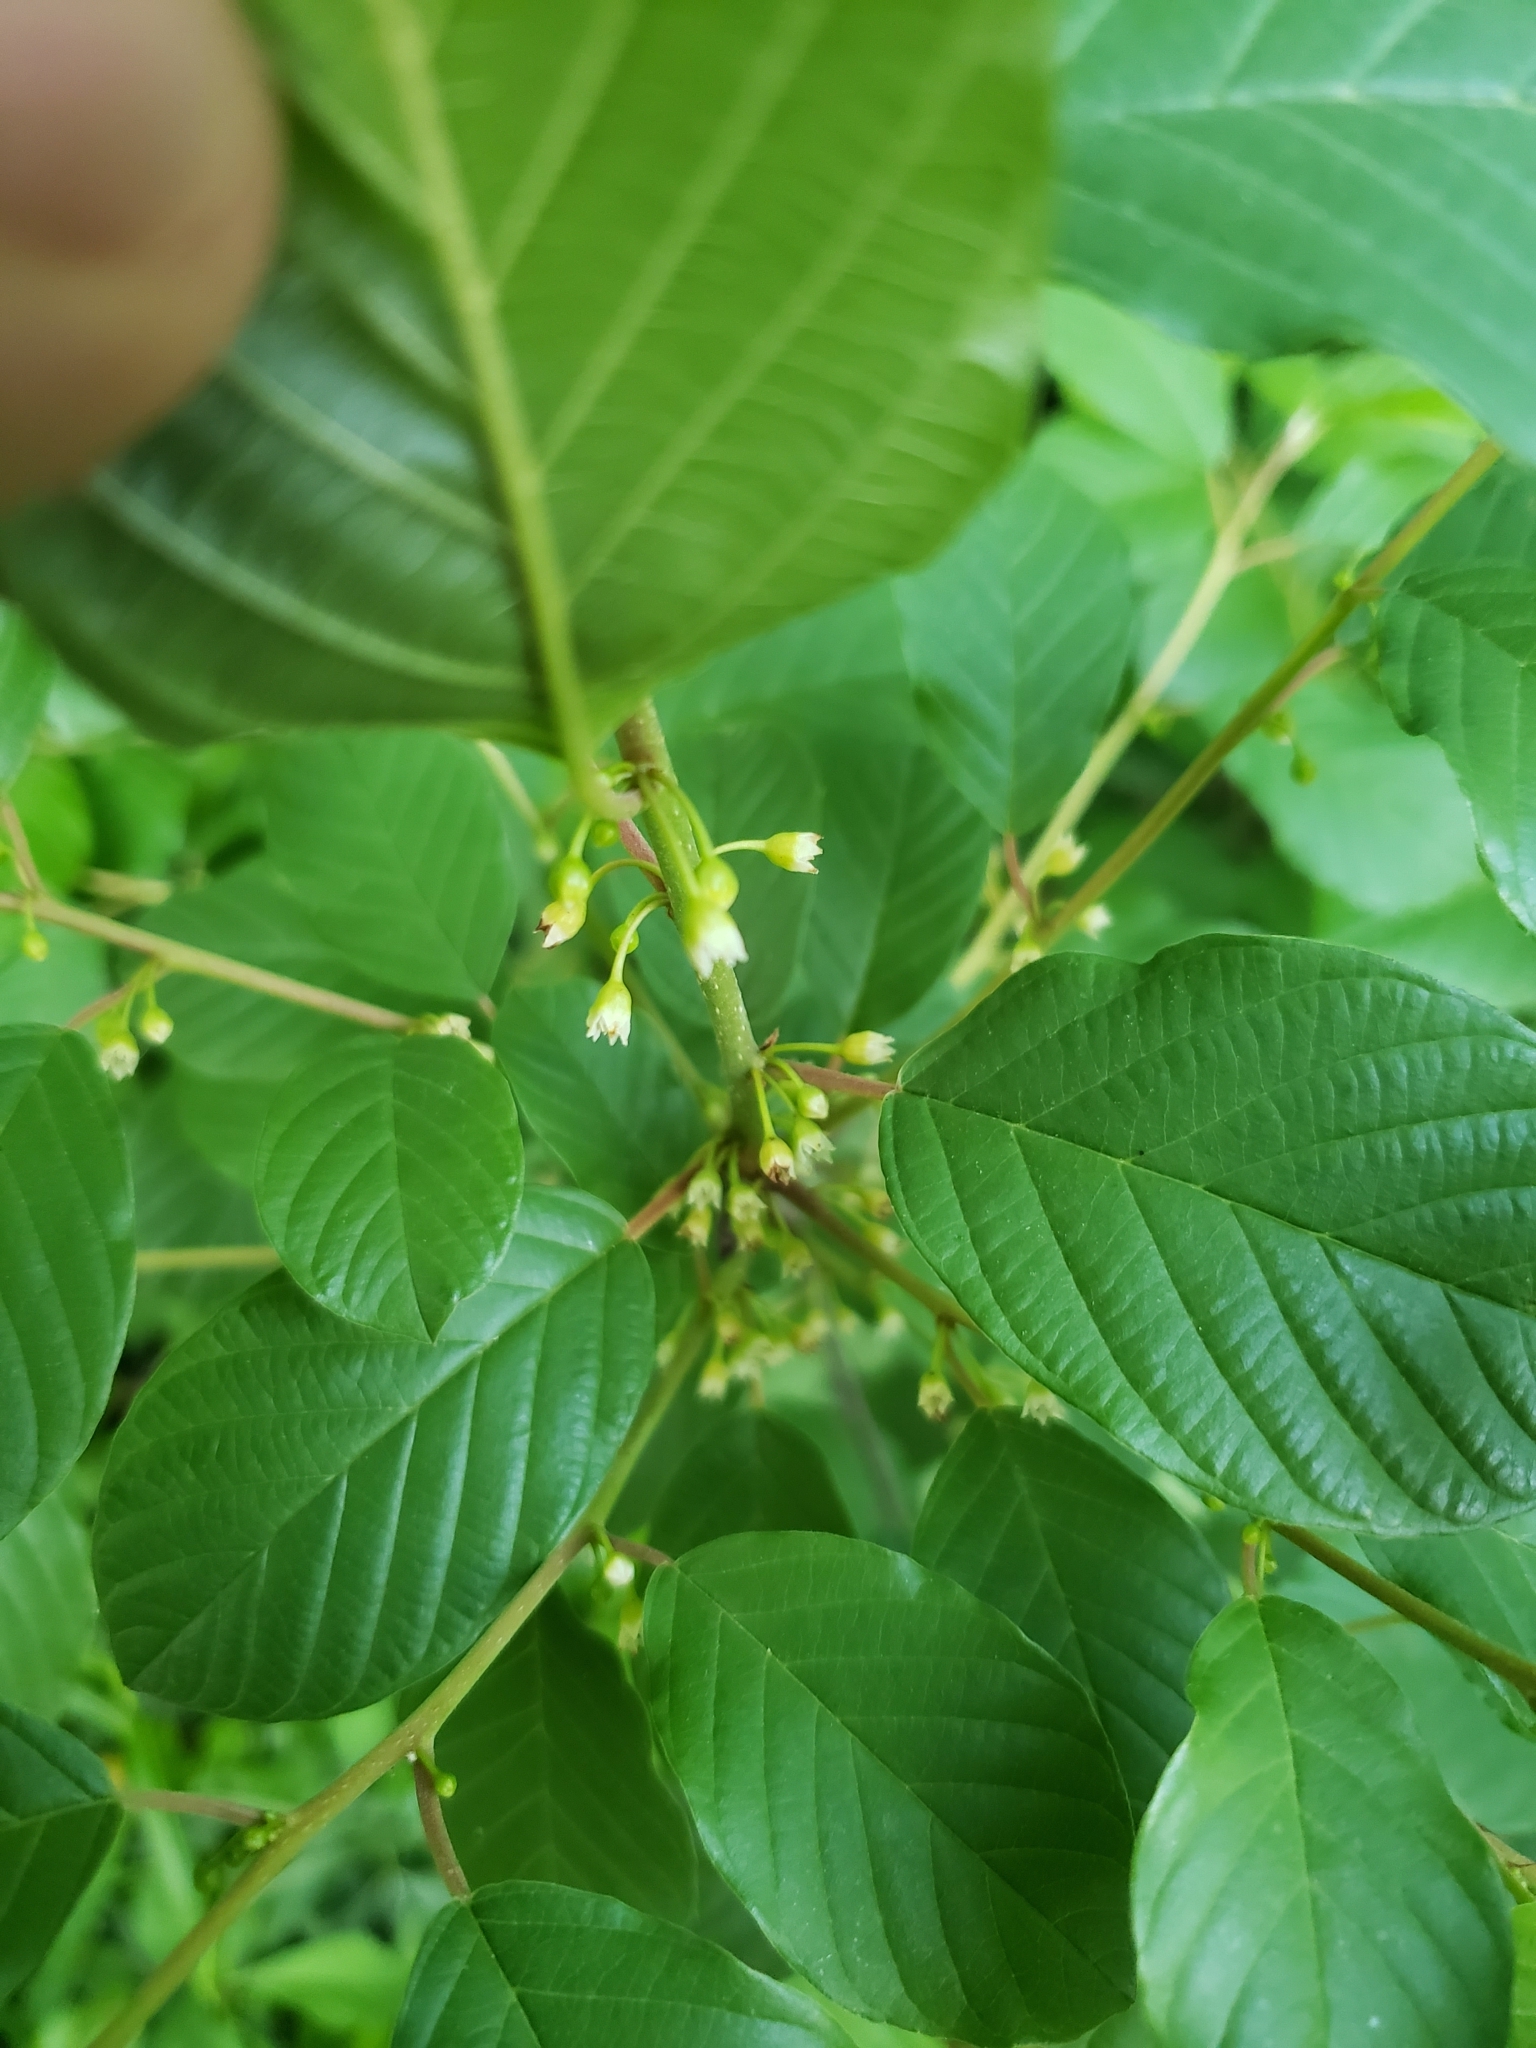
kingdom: Plantae
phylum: Tracheophyta
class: Magnoliopsida
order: Rosales
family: Rhamnaceae
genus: Frangula
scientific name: Frangula alnus
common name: Alder buckthorn
